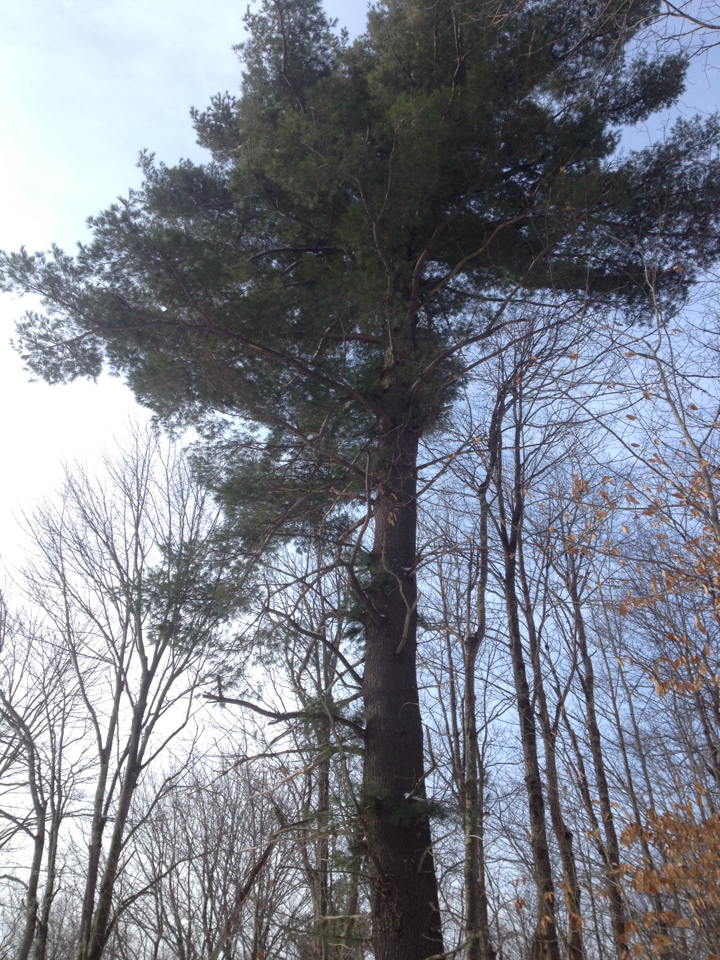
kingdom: Plantae
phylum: Tracheophyta
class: Pinopsida
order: Pinales
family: Pinaceae
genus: Pinus
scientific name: Pinus strobus
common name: Weymouth pine
